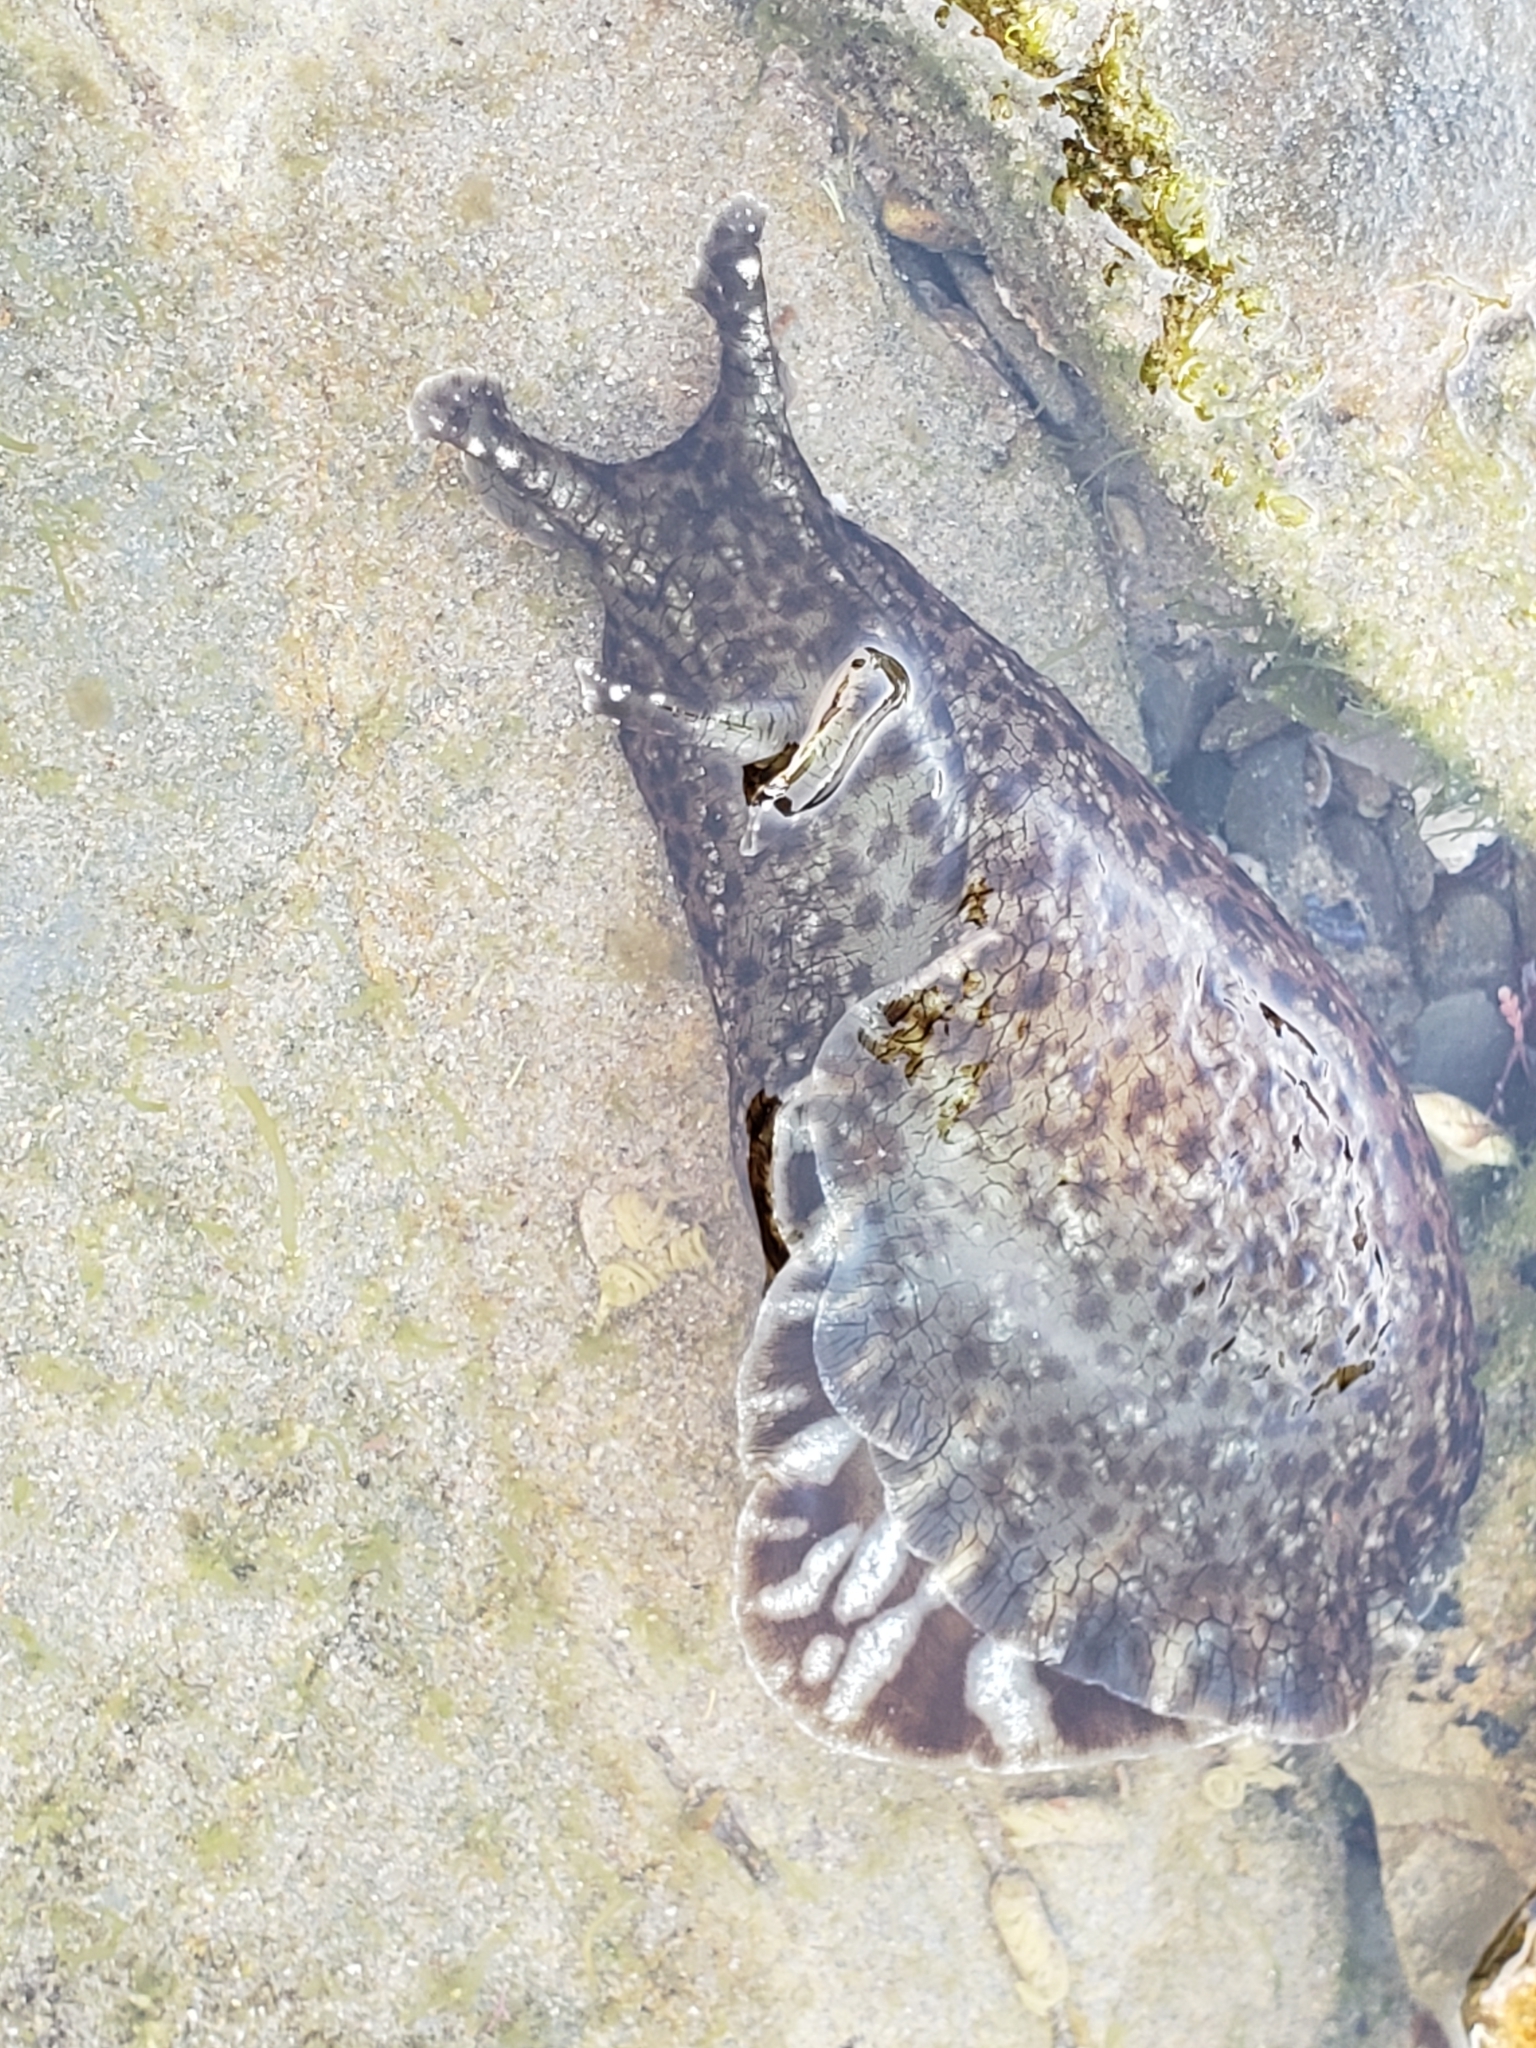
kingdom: Animalia
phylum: Mollusca
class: Gastropoda
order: Aplysiida
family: Aplysiidae
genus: Aplysia
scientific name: Aplysia californica
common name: California seahare
